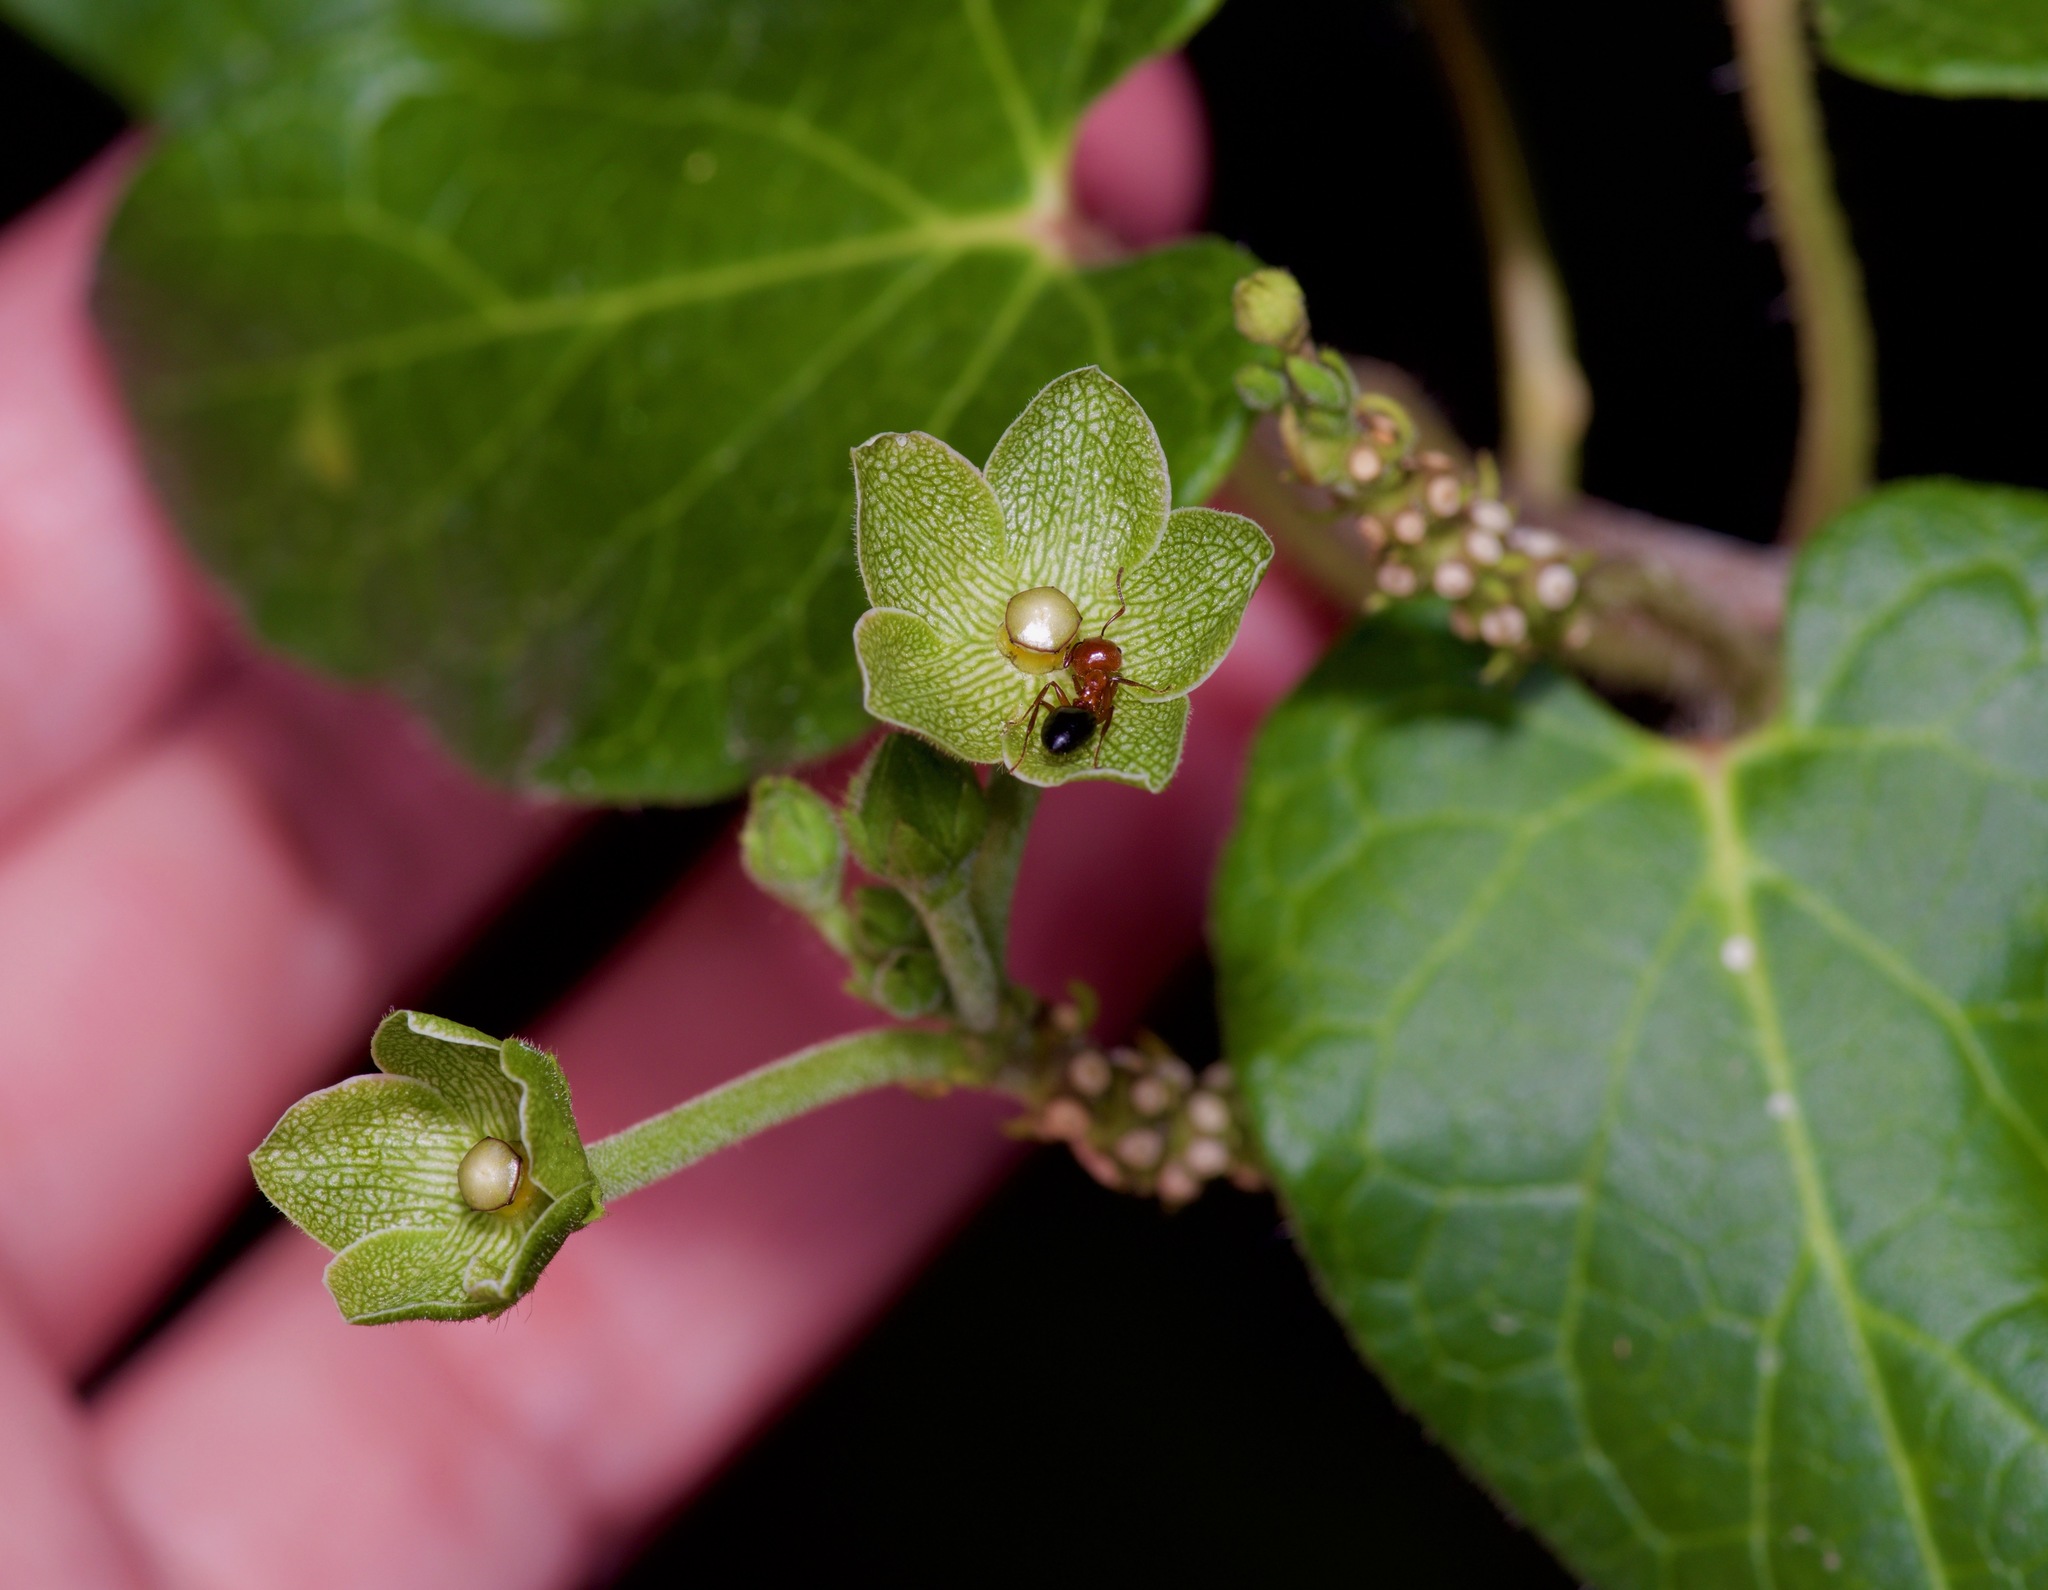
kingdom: Animalia
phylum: Arthropoda
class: Insecta
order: Hymenoptera
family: Formicidae
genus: Crematogaster
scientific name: Crematogaster laeviuscula
